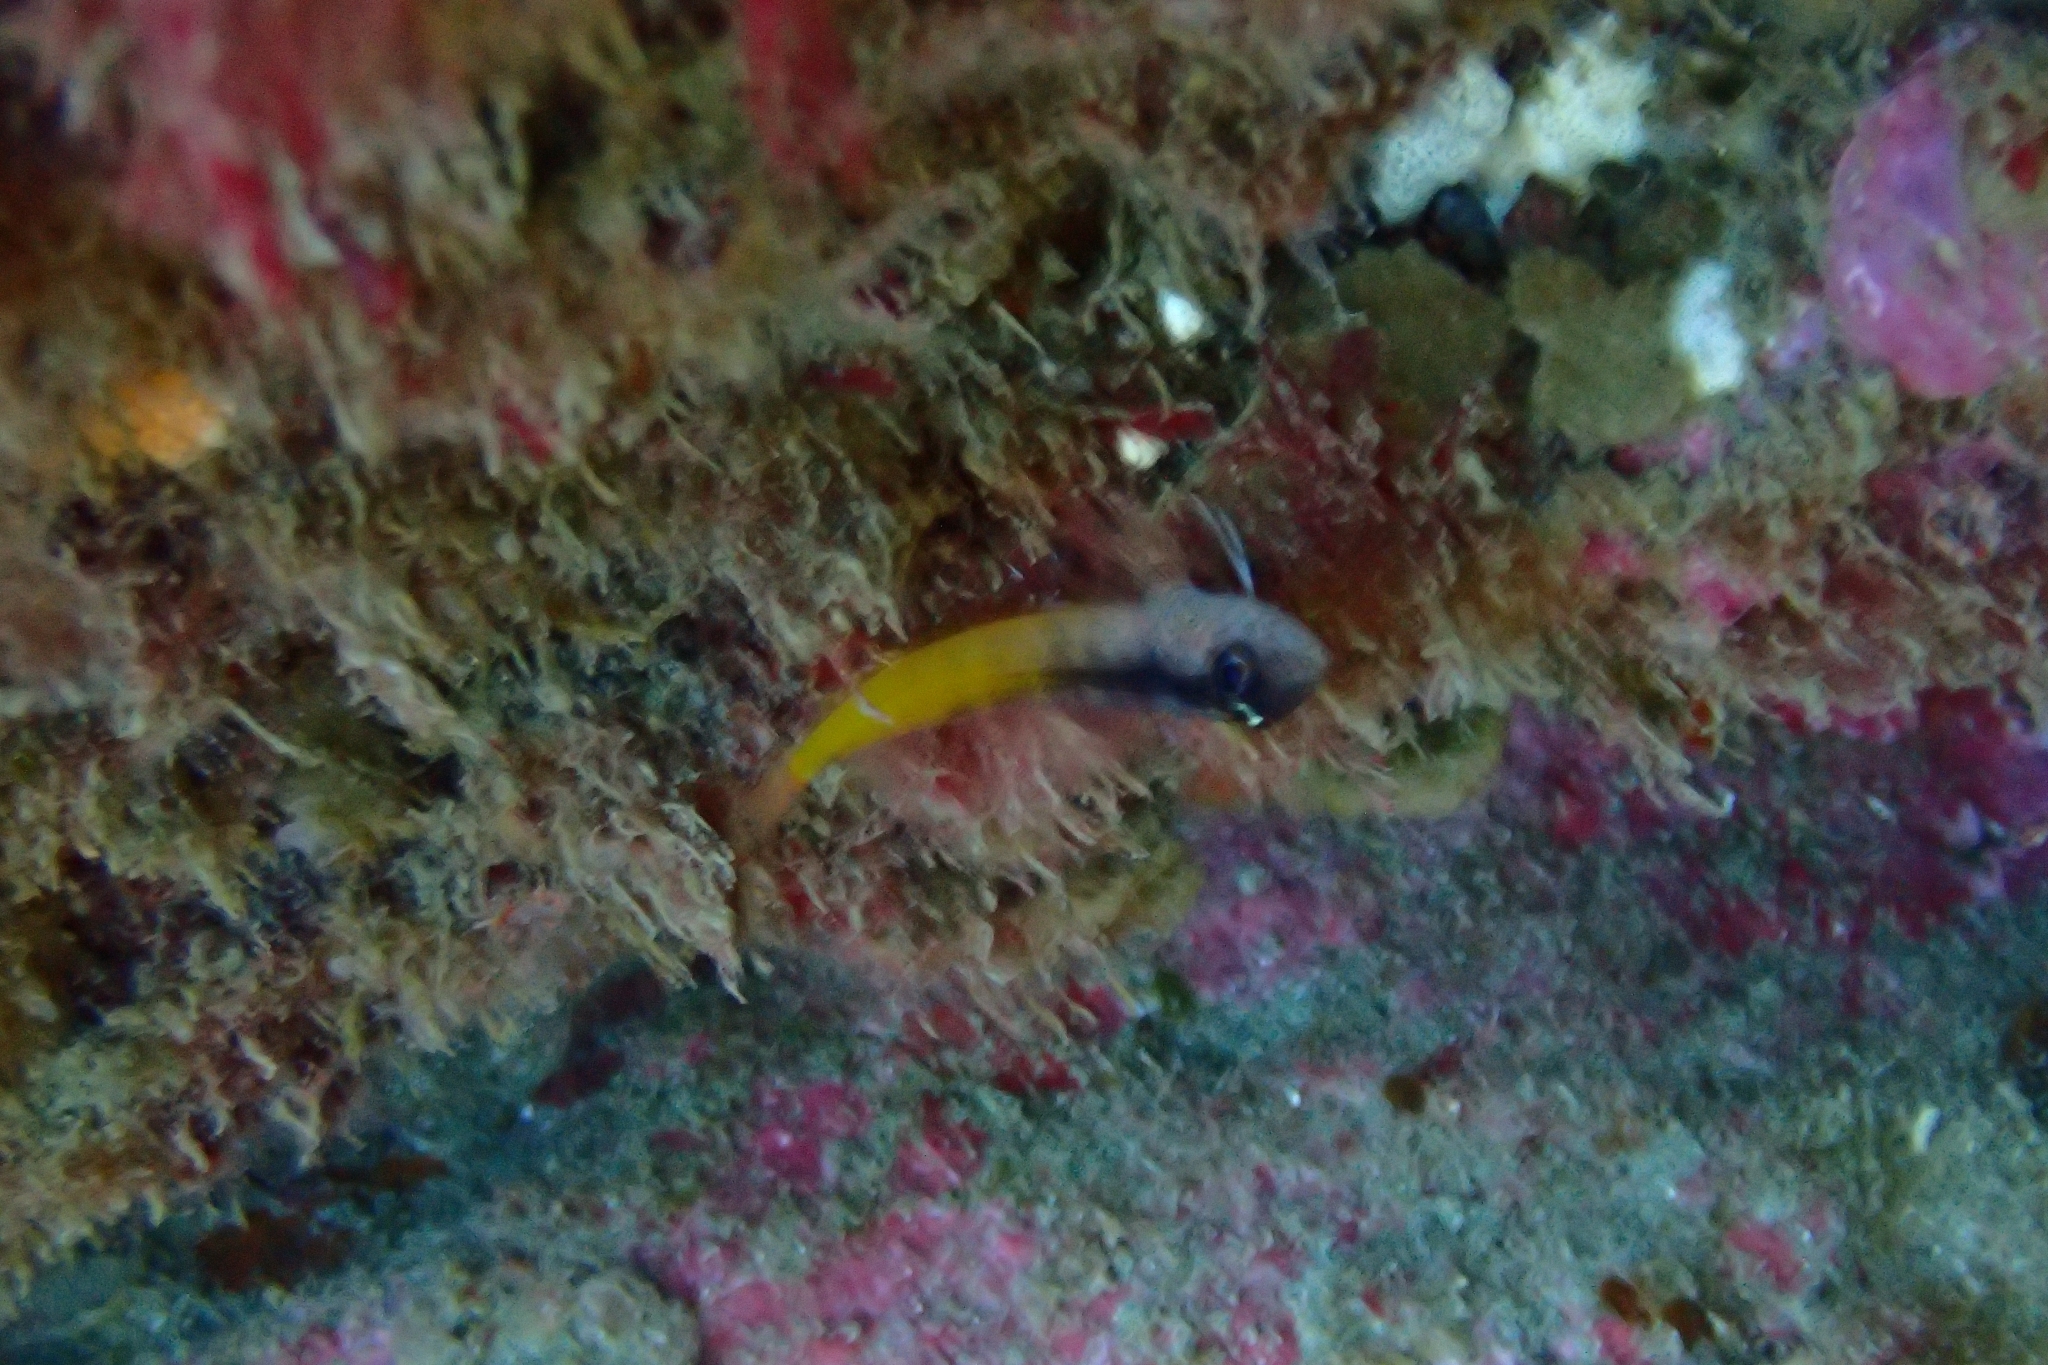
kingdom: Animalia
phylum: Chordata
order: Perciformes
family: Tripterygiidae
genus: Forsterygion
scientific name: Forsterygion flavonigrum
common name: Yellow-and-black triplefin
